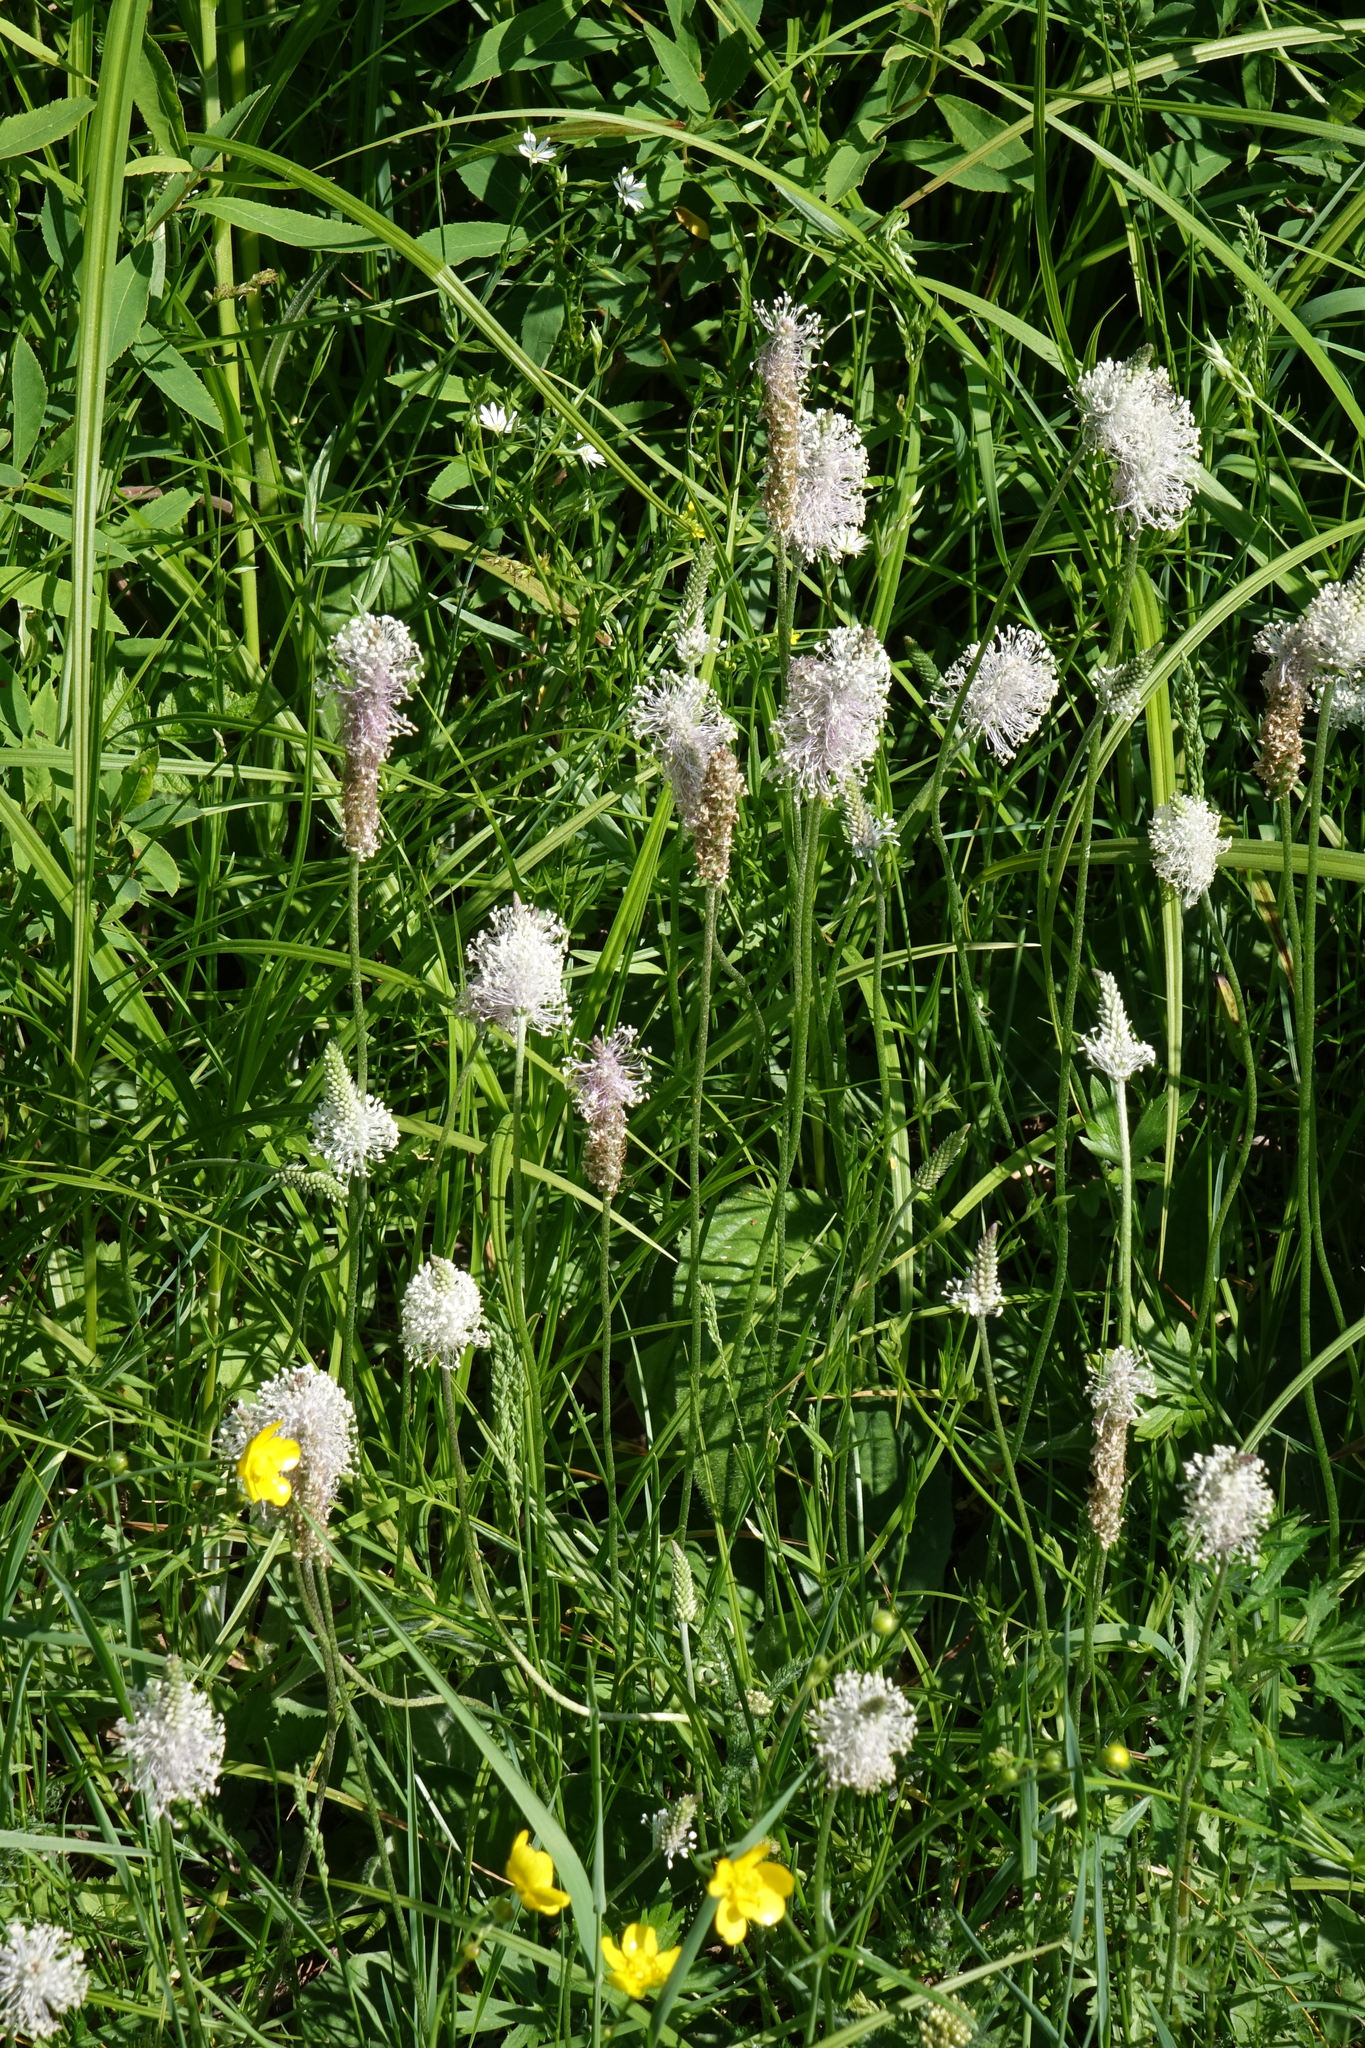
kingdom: Plantae
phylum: Tracheophyta
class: Magnoliopsida
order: Lamiales
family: Plantaginaceae
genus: Plantago
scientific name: Plantago media
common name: Hoary plantain
